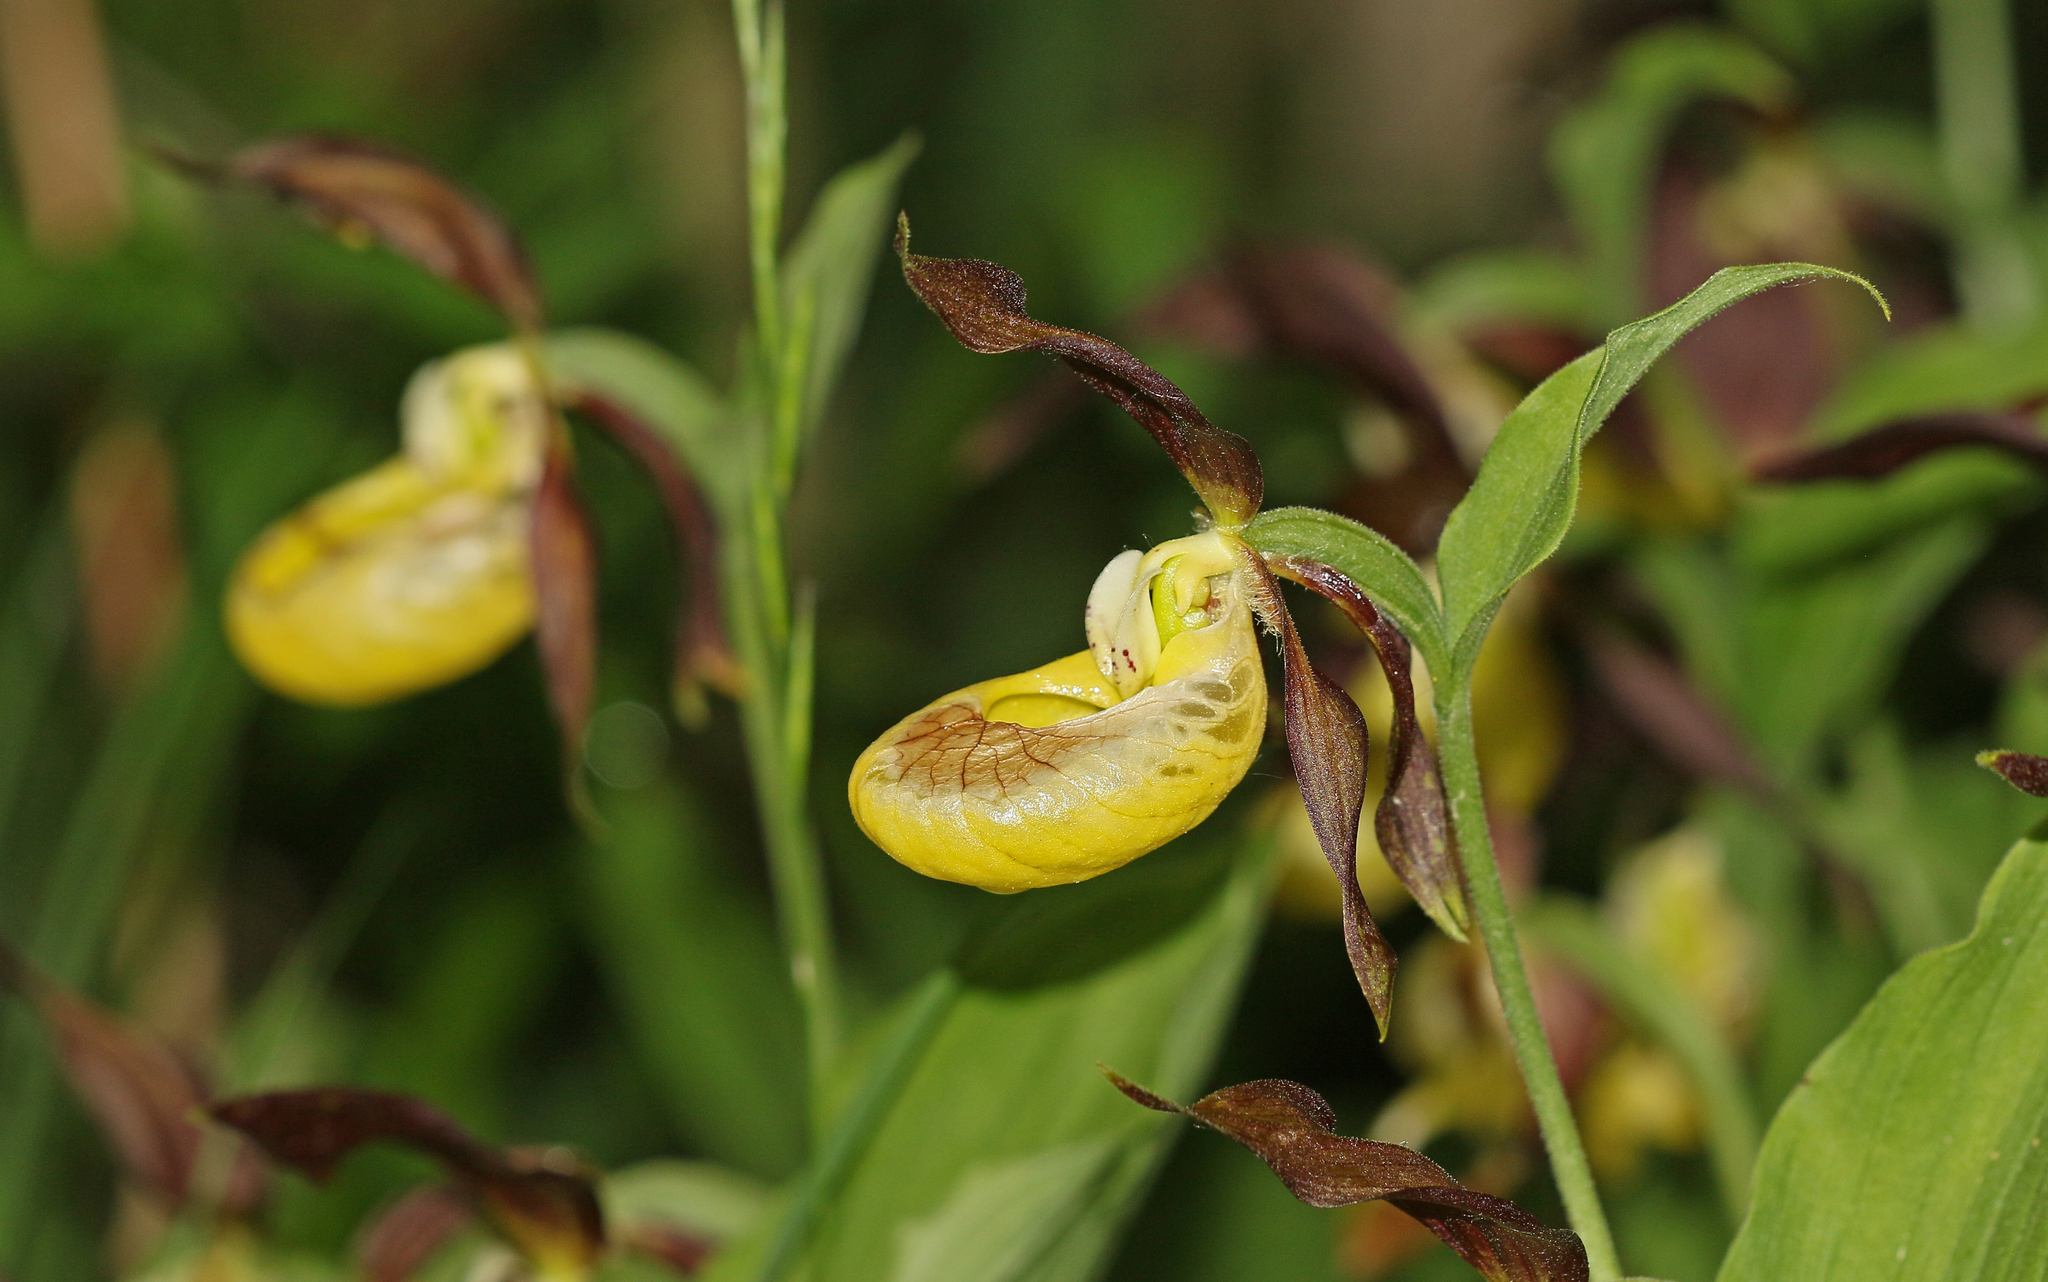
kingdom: Plantae
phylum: Tracheophyta
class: Liliopsida
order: Asparagales
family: Orchidaceae
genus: Cypripedium
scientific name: Cypripedium calceolus
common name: Lady's-slipper
